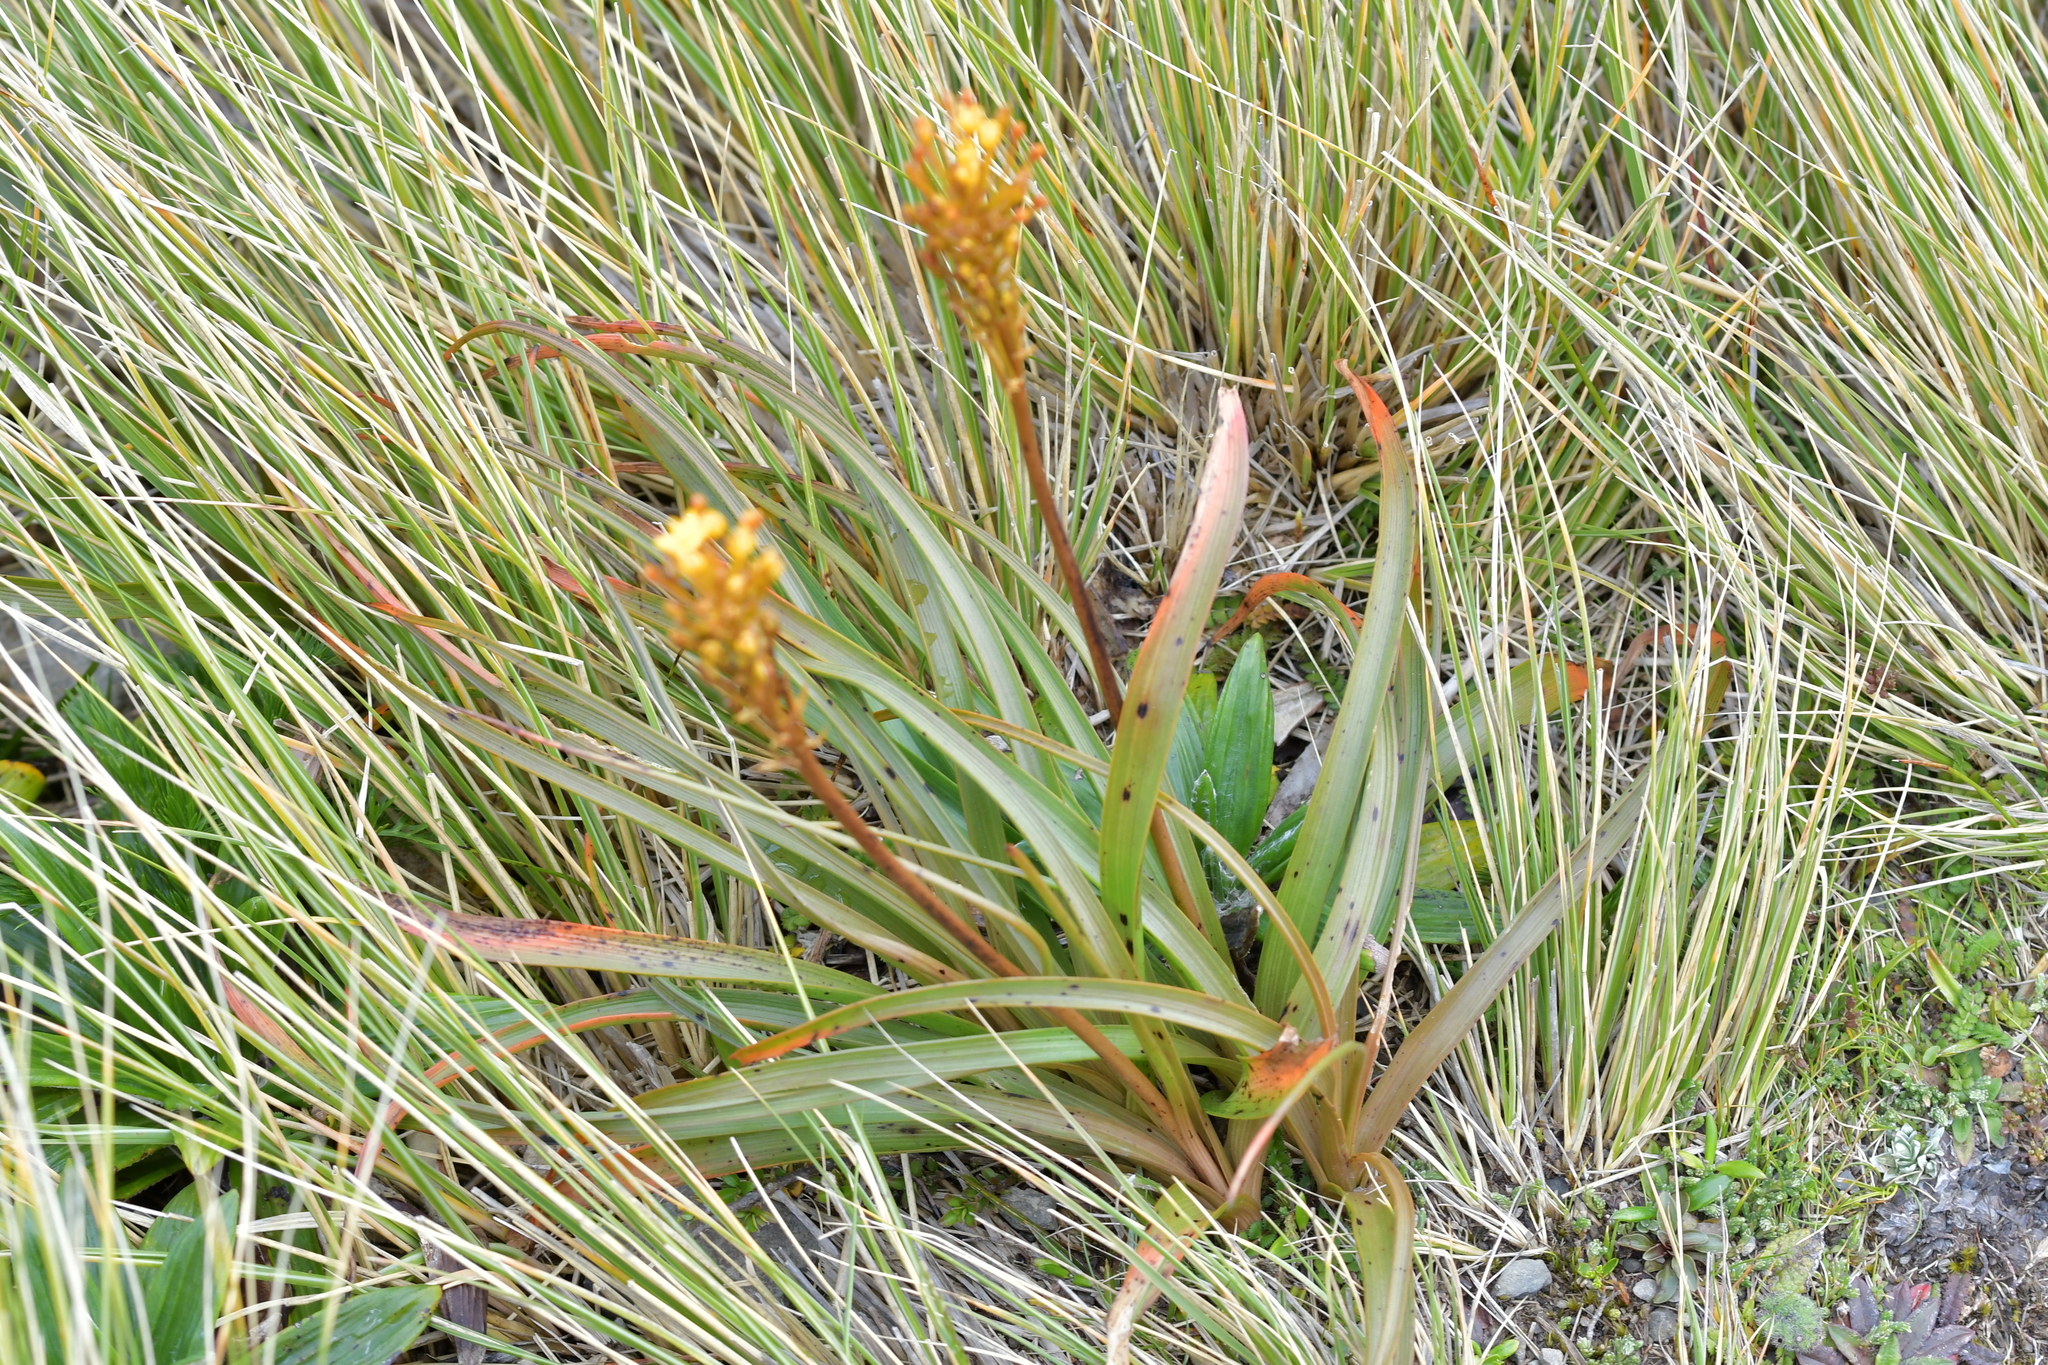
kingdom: Plantae
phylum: Tracheophyta
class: Liliopsida
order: Asparagales
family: Asphodelaceae
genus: Bulbinella
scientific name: Bulbinella hookeri
